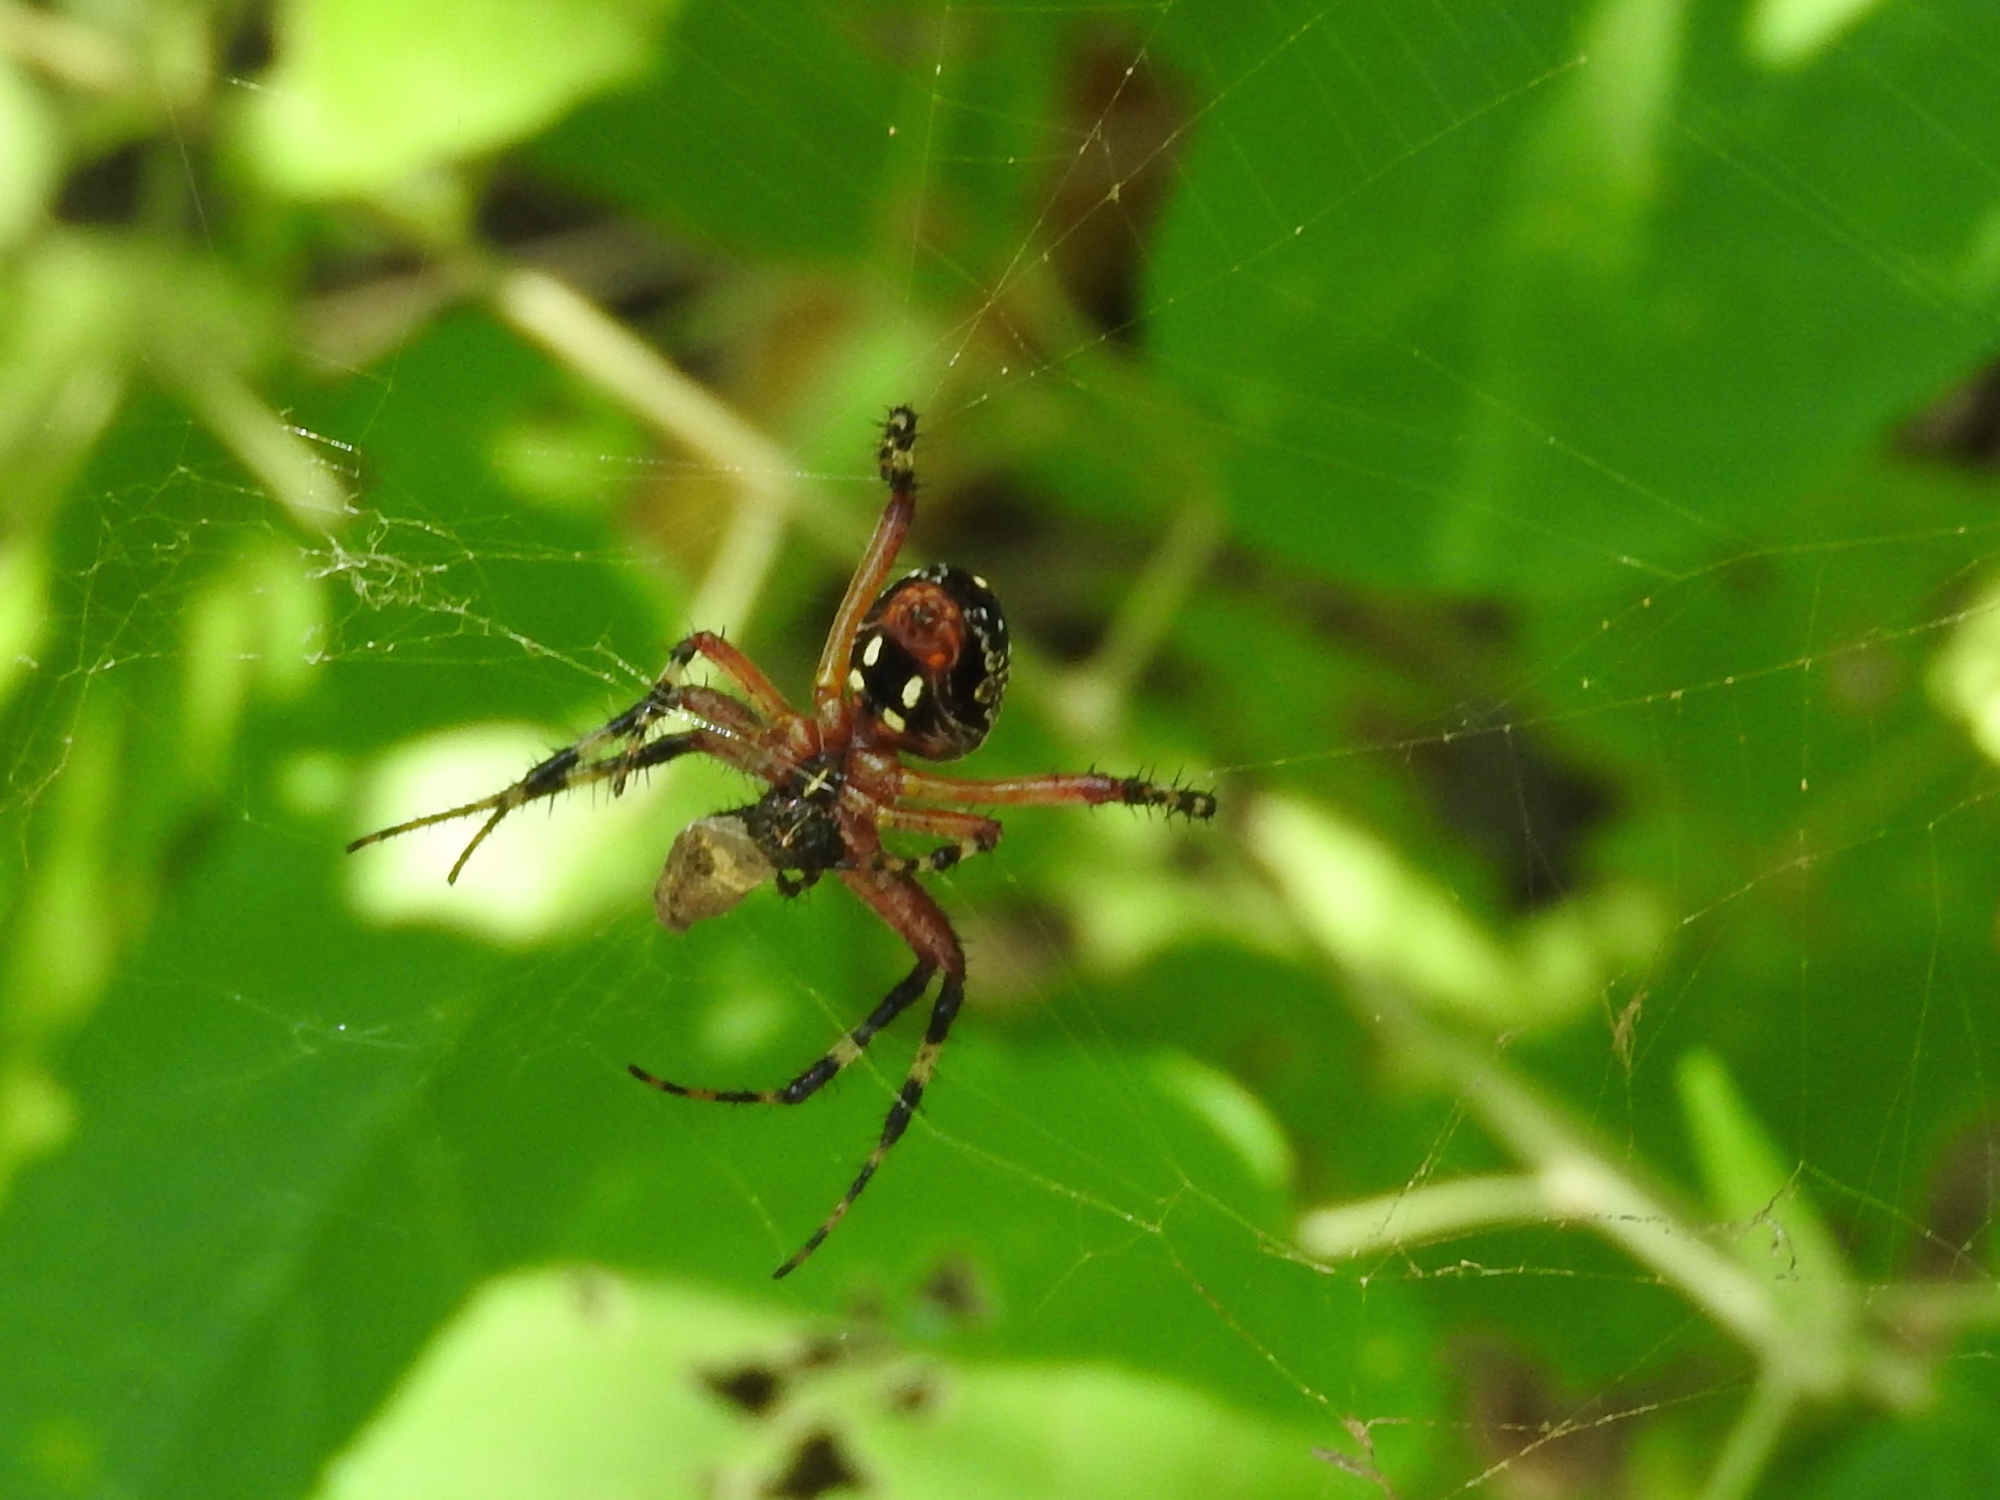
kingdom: Animalia
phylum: Arthropoda
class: Arachnida
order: Araneae
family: Araneidae
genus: Neoscona
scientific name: Neoscona oaxacensis
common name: Orb weavers
